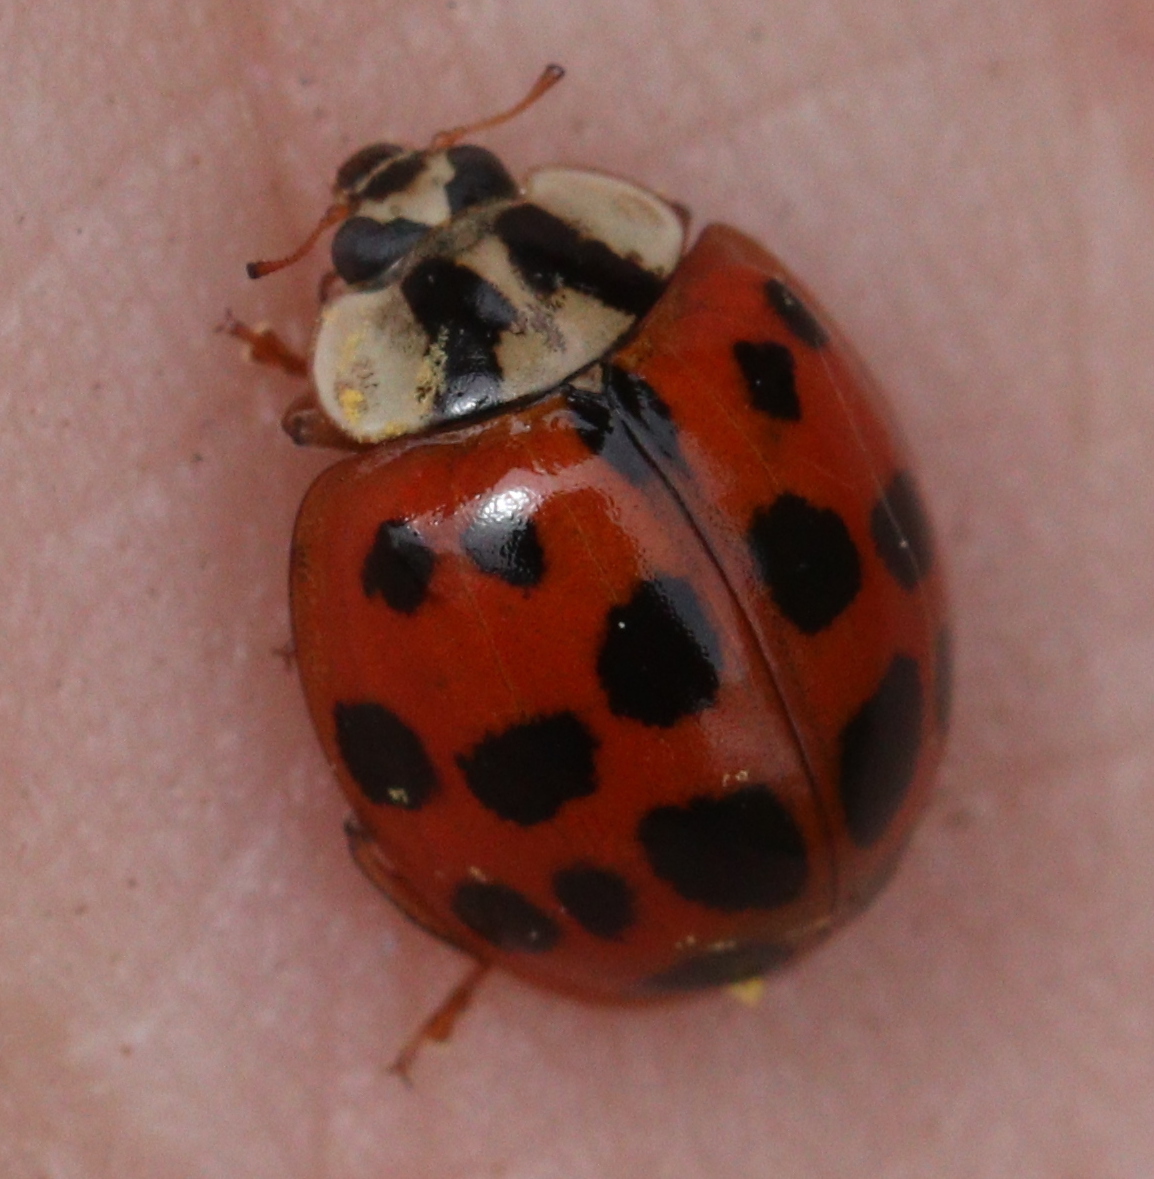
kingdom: Animalia
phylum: Arthropoda
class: Insecta
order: Coleoptera
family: Coccinellidae
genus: Harmonia
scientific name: Harmonia axyridis
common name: Harlequin ladybird
